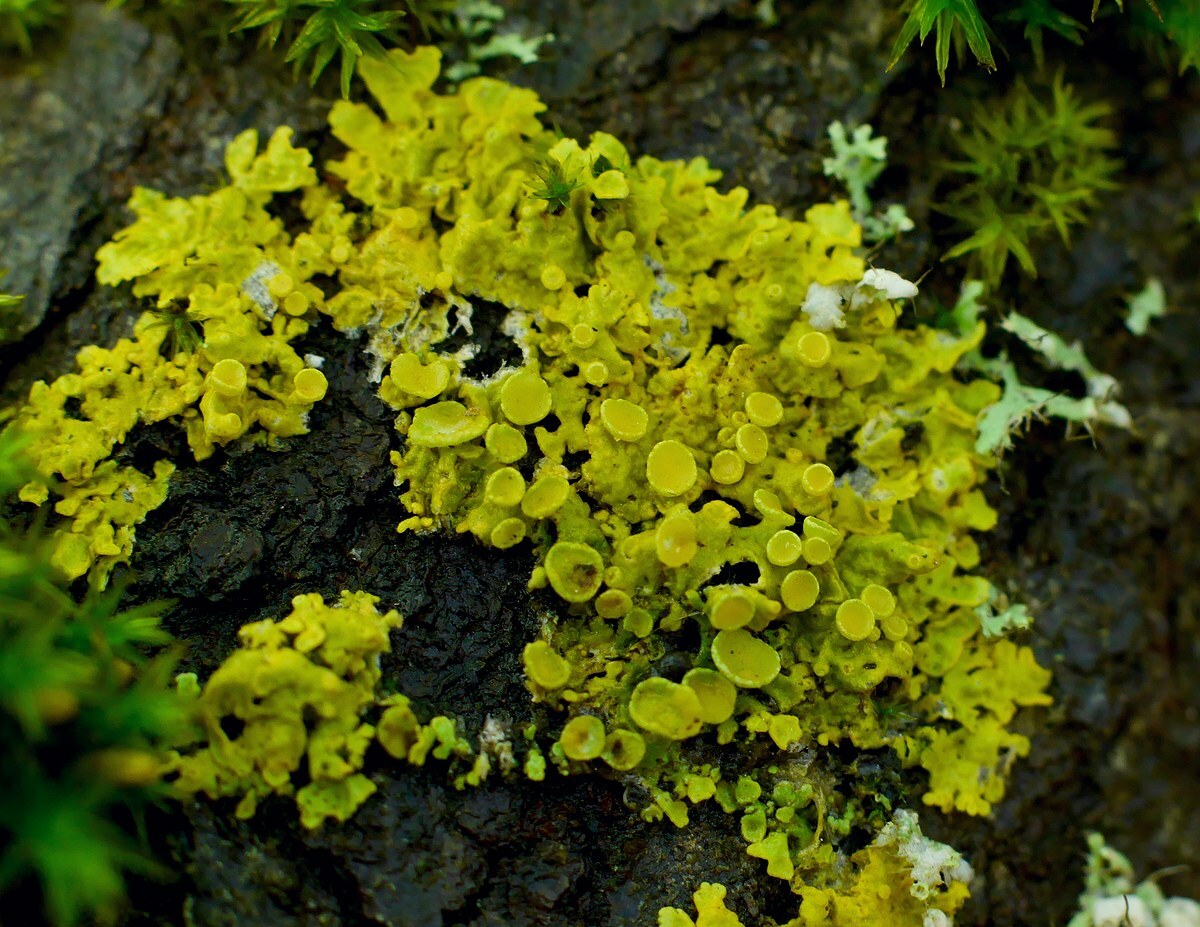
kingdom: Fungi
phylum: Ascomycota
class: Lecanoromycetes
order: Teloschistales
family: Teloschistaceae
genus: Xanthoria
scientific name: Xanthoria parietina
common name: Common orange lichen
